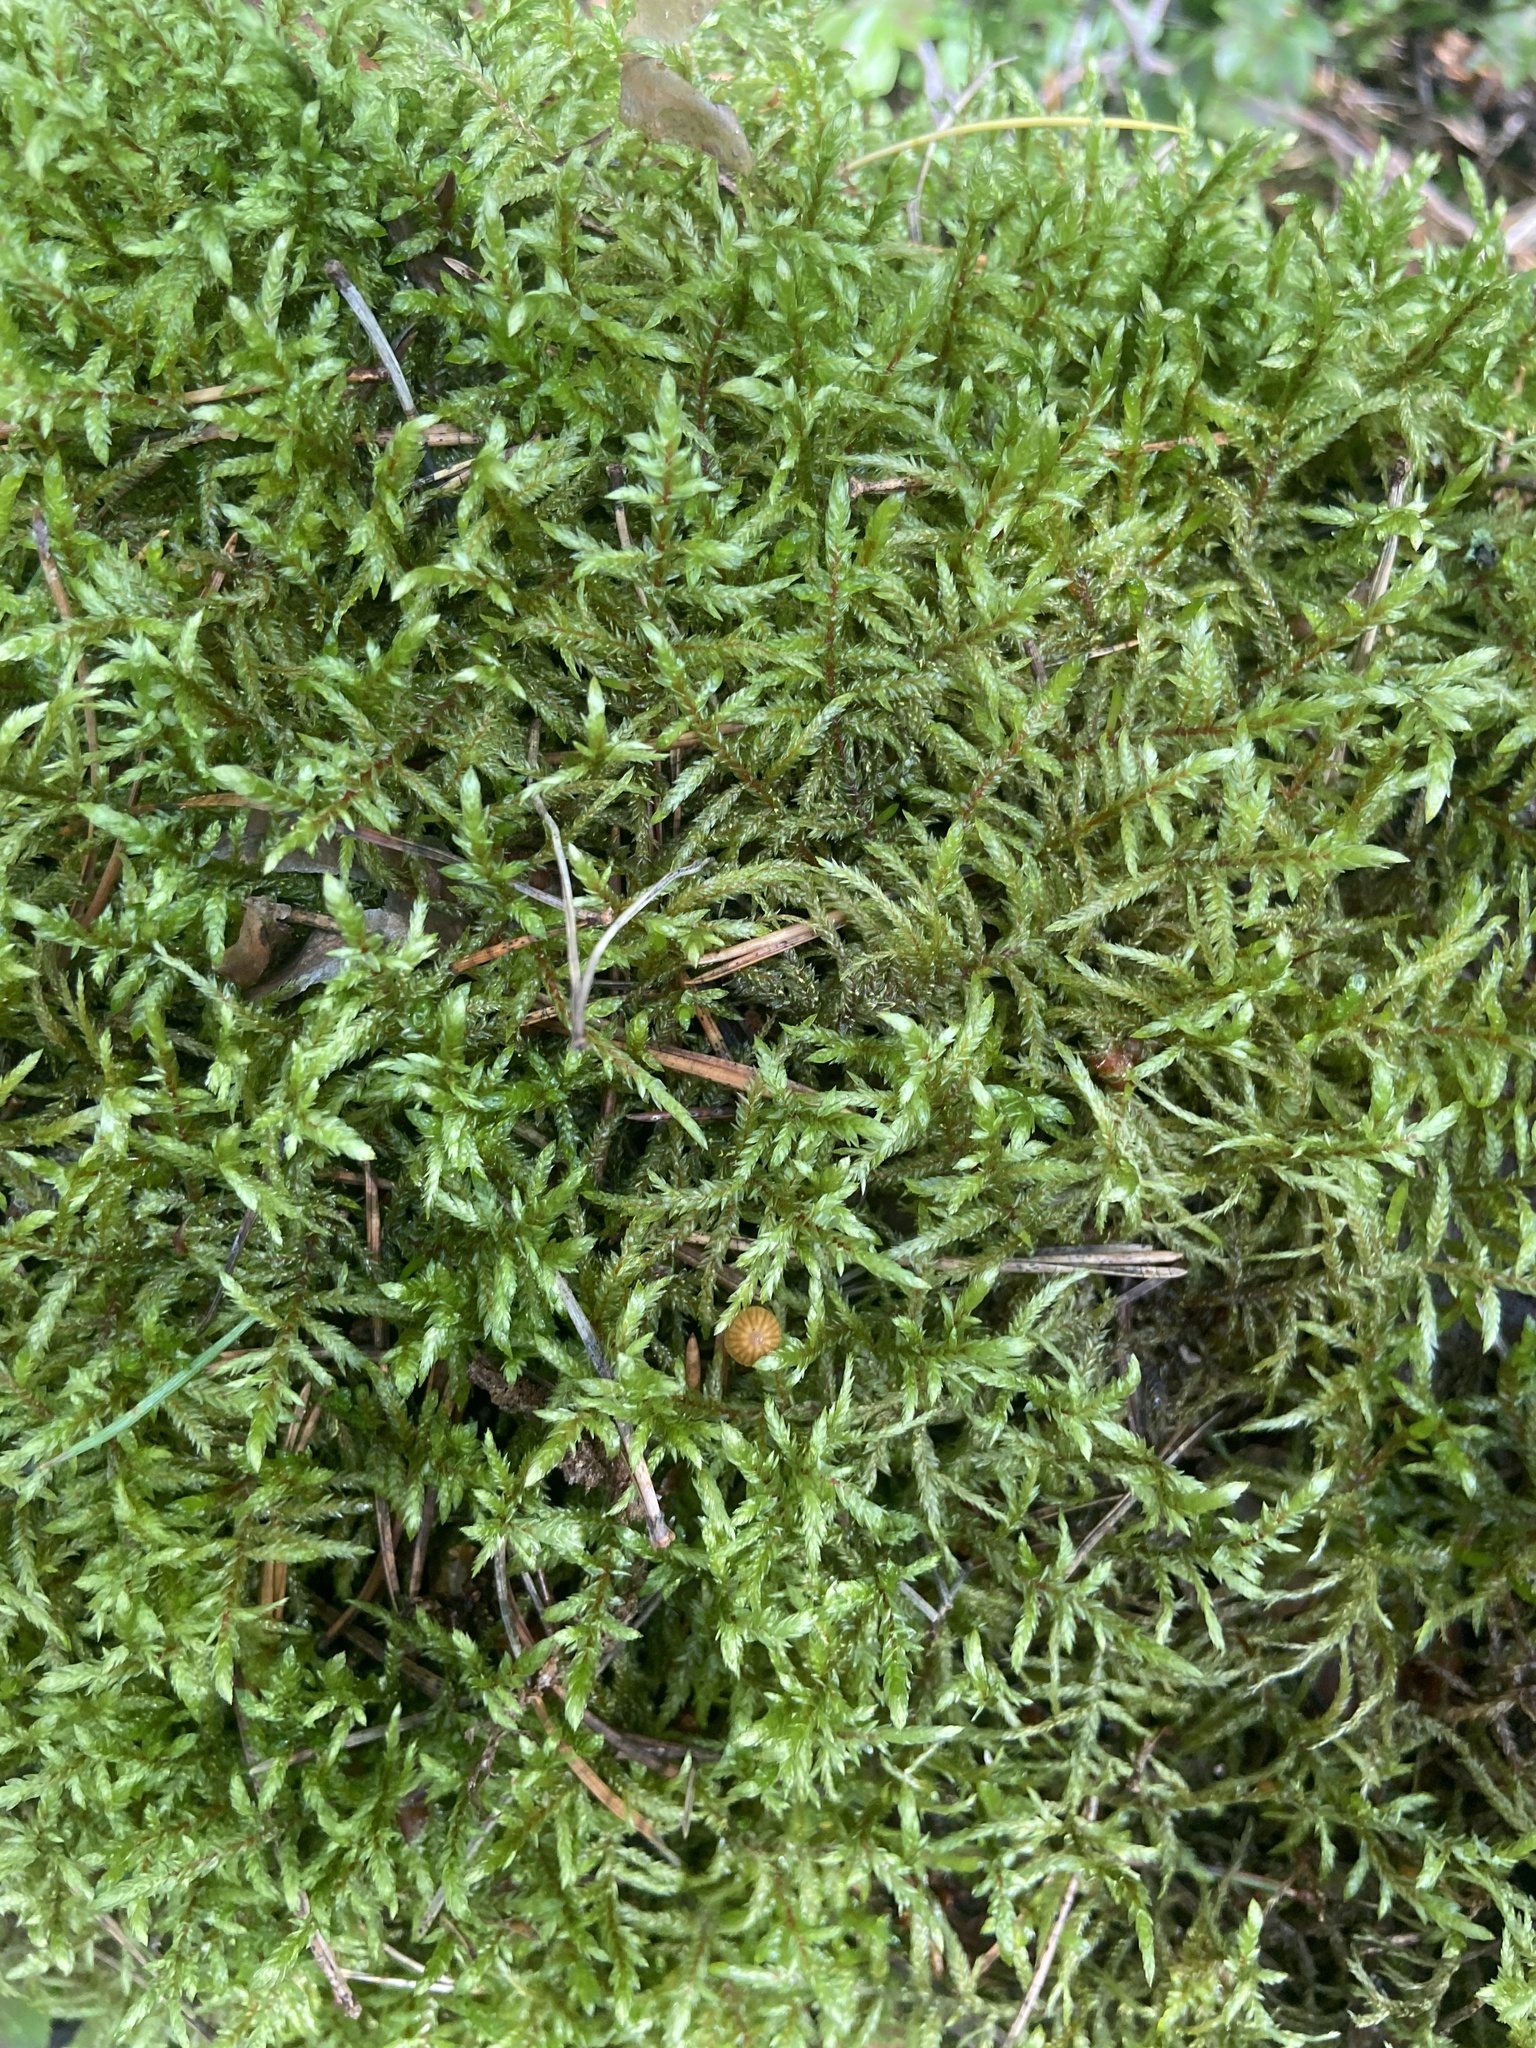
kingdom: Plantae
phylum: Bryophyta
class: Bryopsida
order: Hypnales
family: Hylocomiaceae
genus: Pleurozium
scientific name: Pleurozium schreberi
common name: Red-stemmed feather moss
